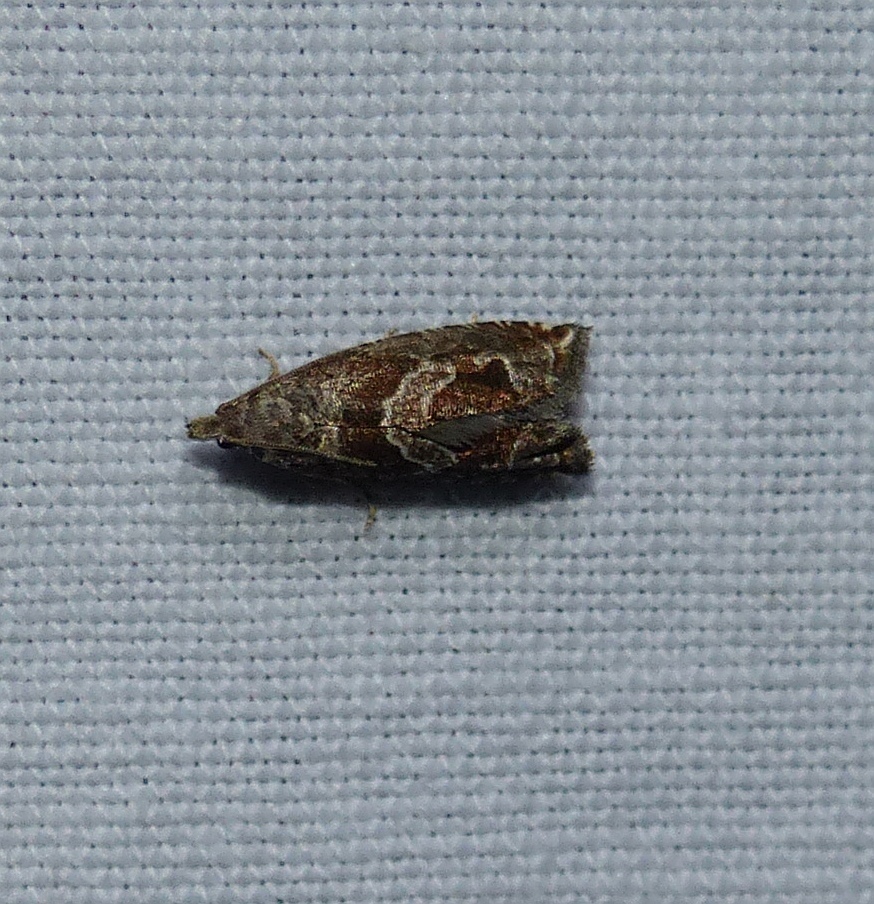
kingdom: Animalia
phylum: Arthropoda
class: Insecta
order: Lepidoptera
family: Tortricidae
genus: Sonia
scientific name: Sonia canadana
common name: Canadian sonia moth
